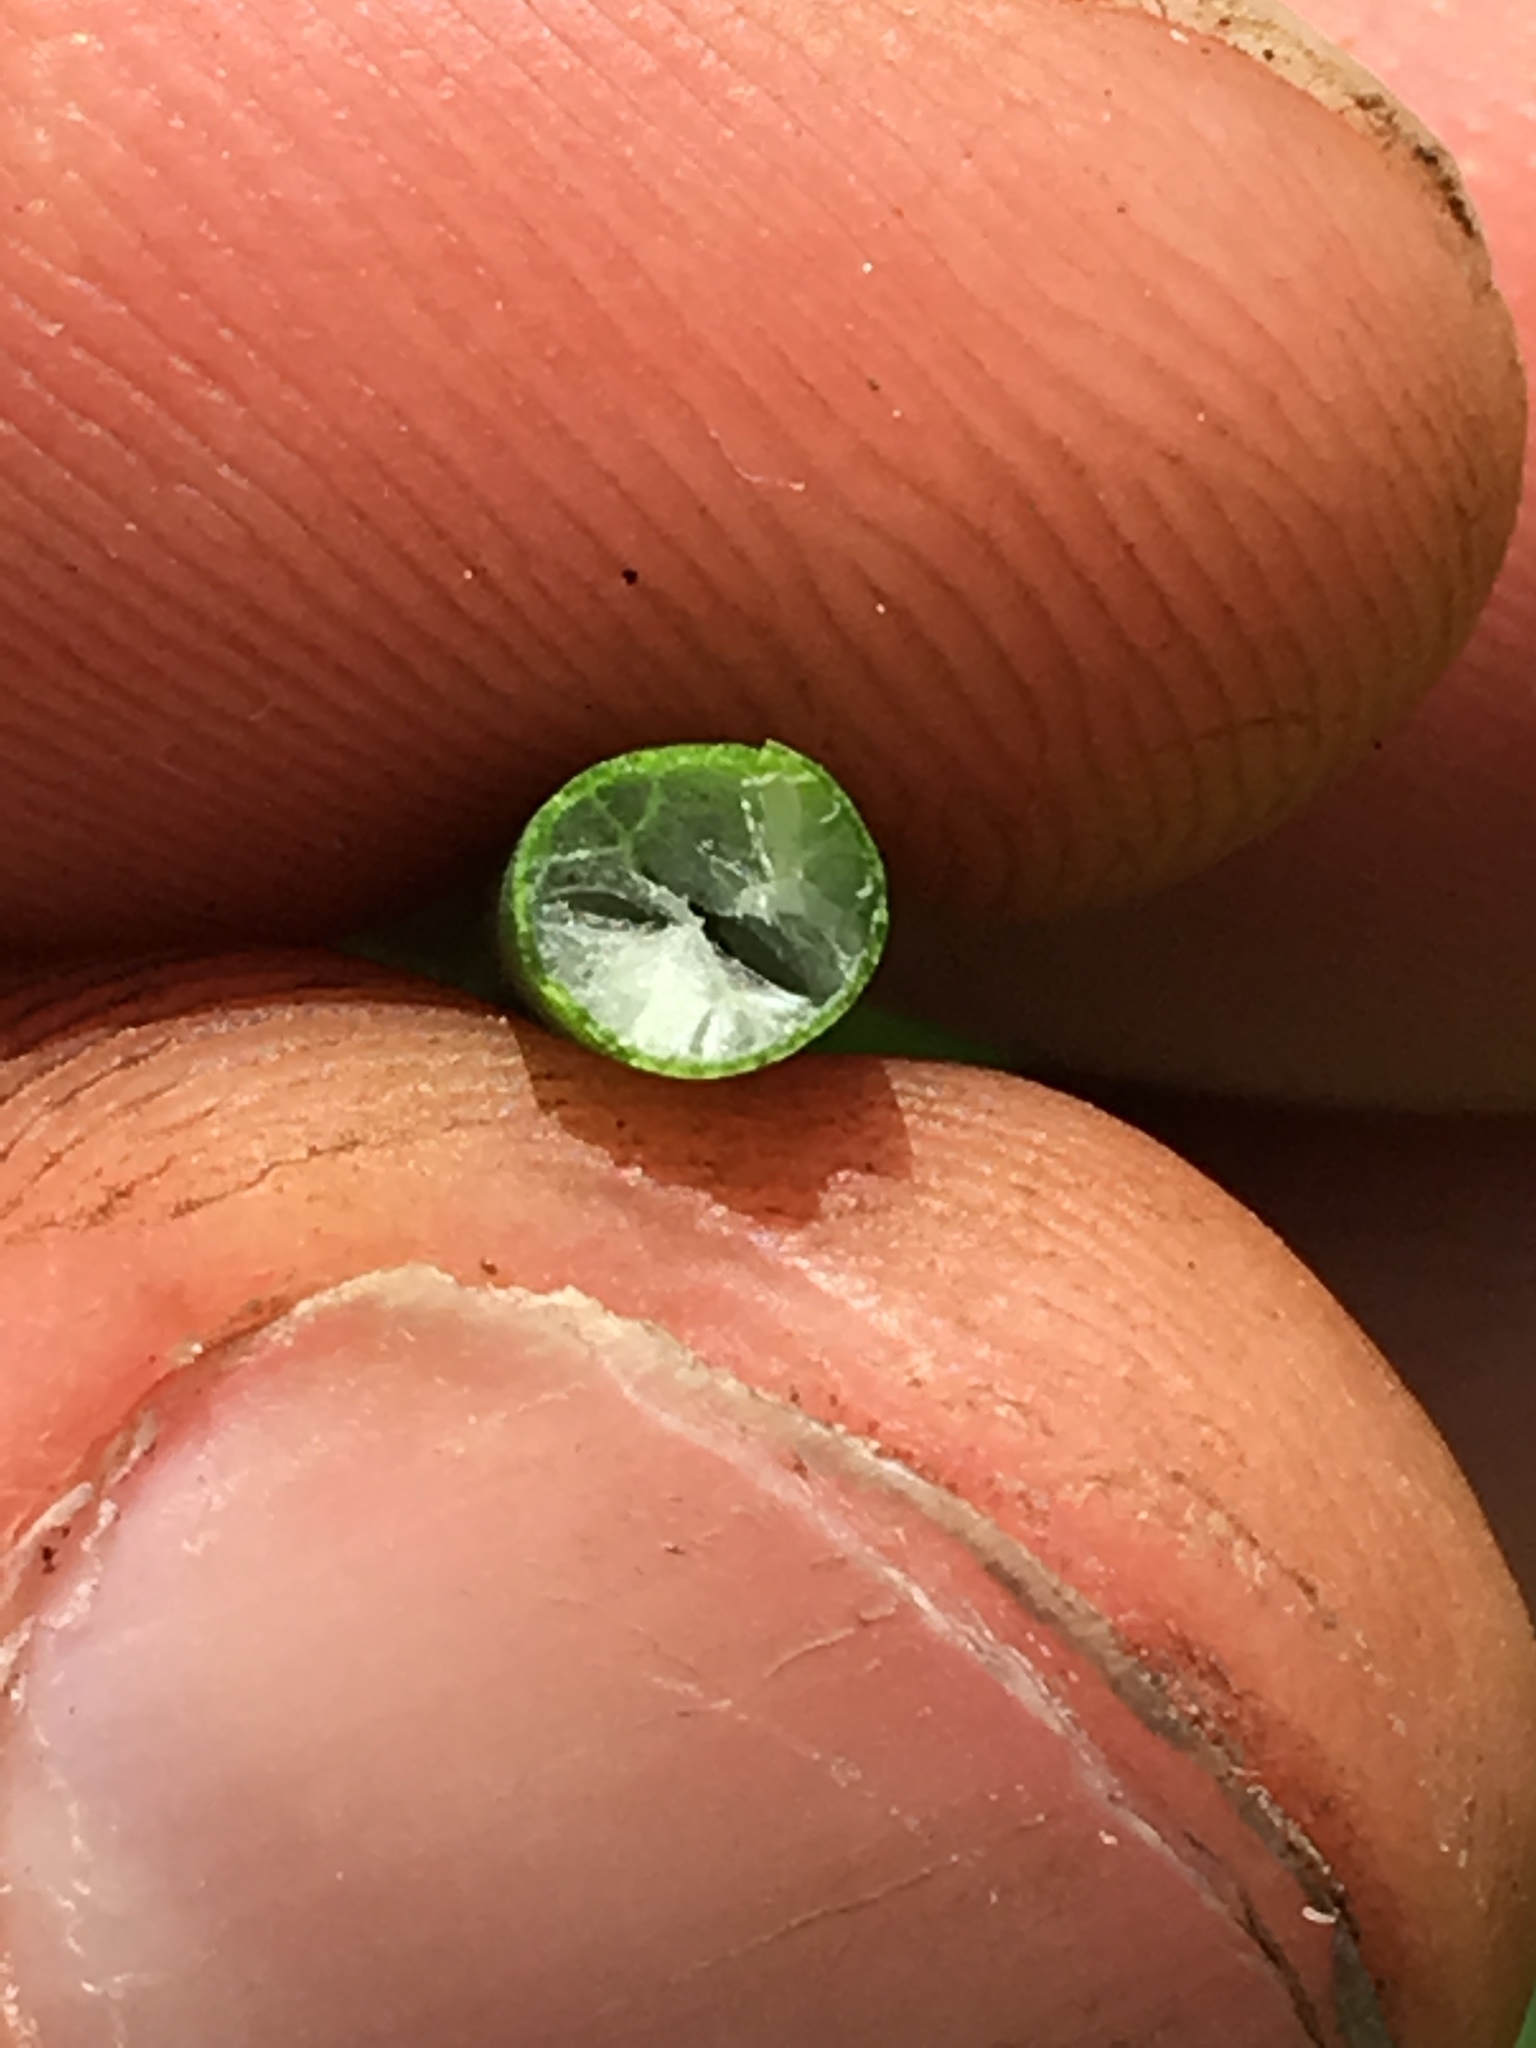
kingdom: Plantae
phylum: Tracheophyta
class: Liliopsida
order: Poales
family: Cyperaceae
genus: Schoenoplectus
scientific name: Schoenoplectus tabernaemontani
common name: Grey club-rush
